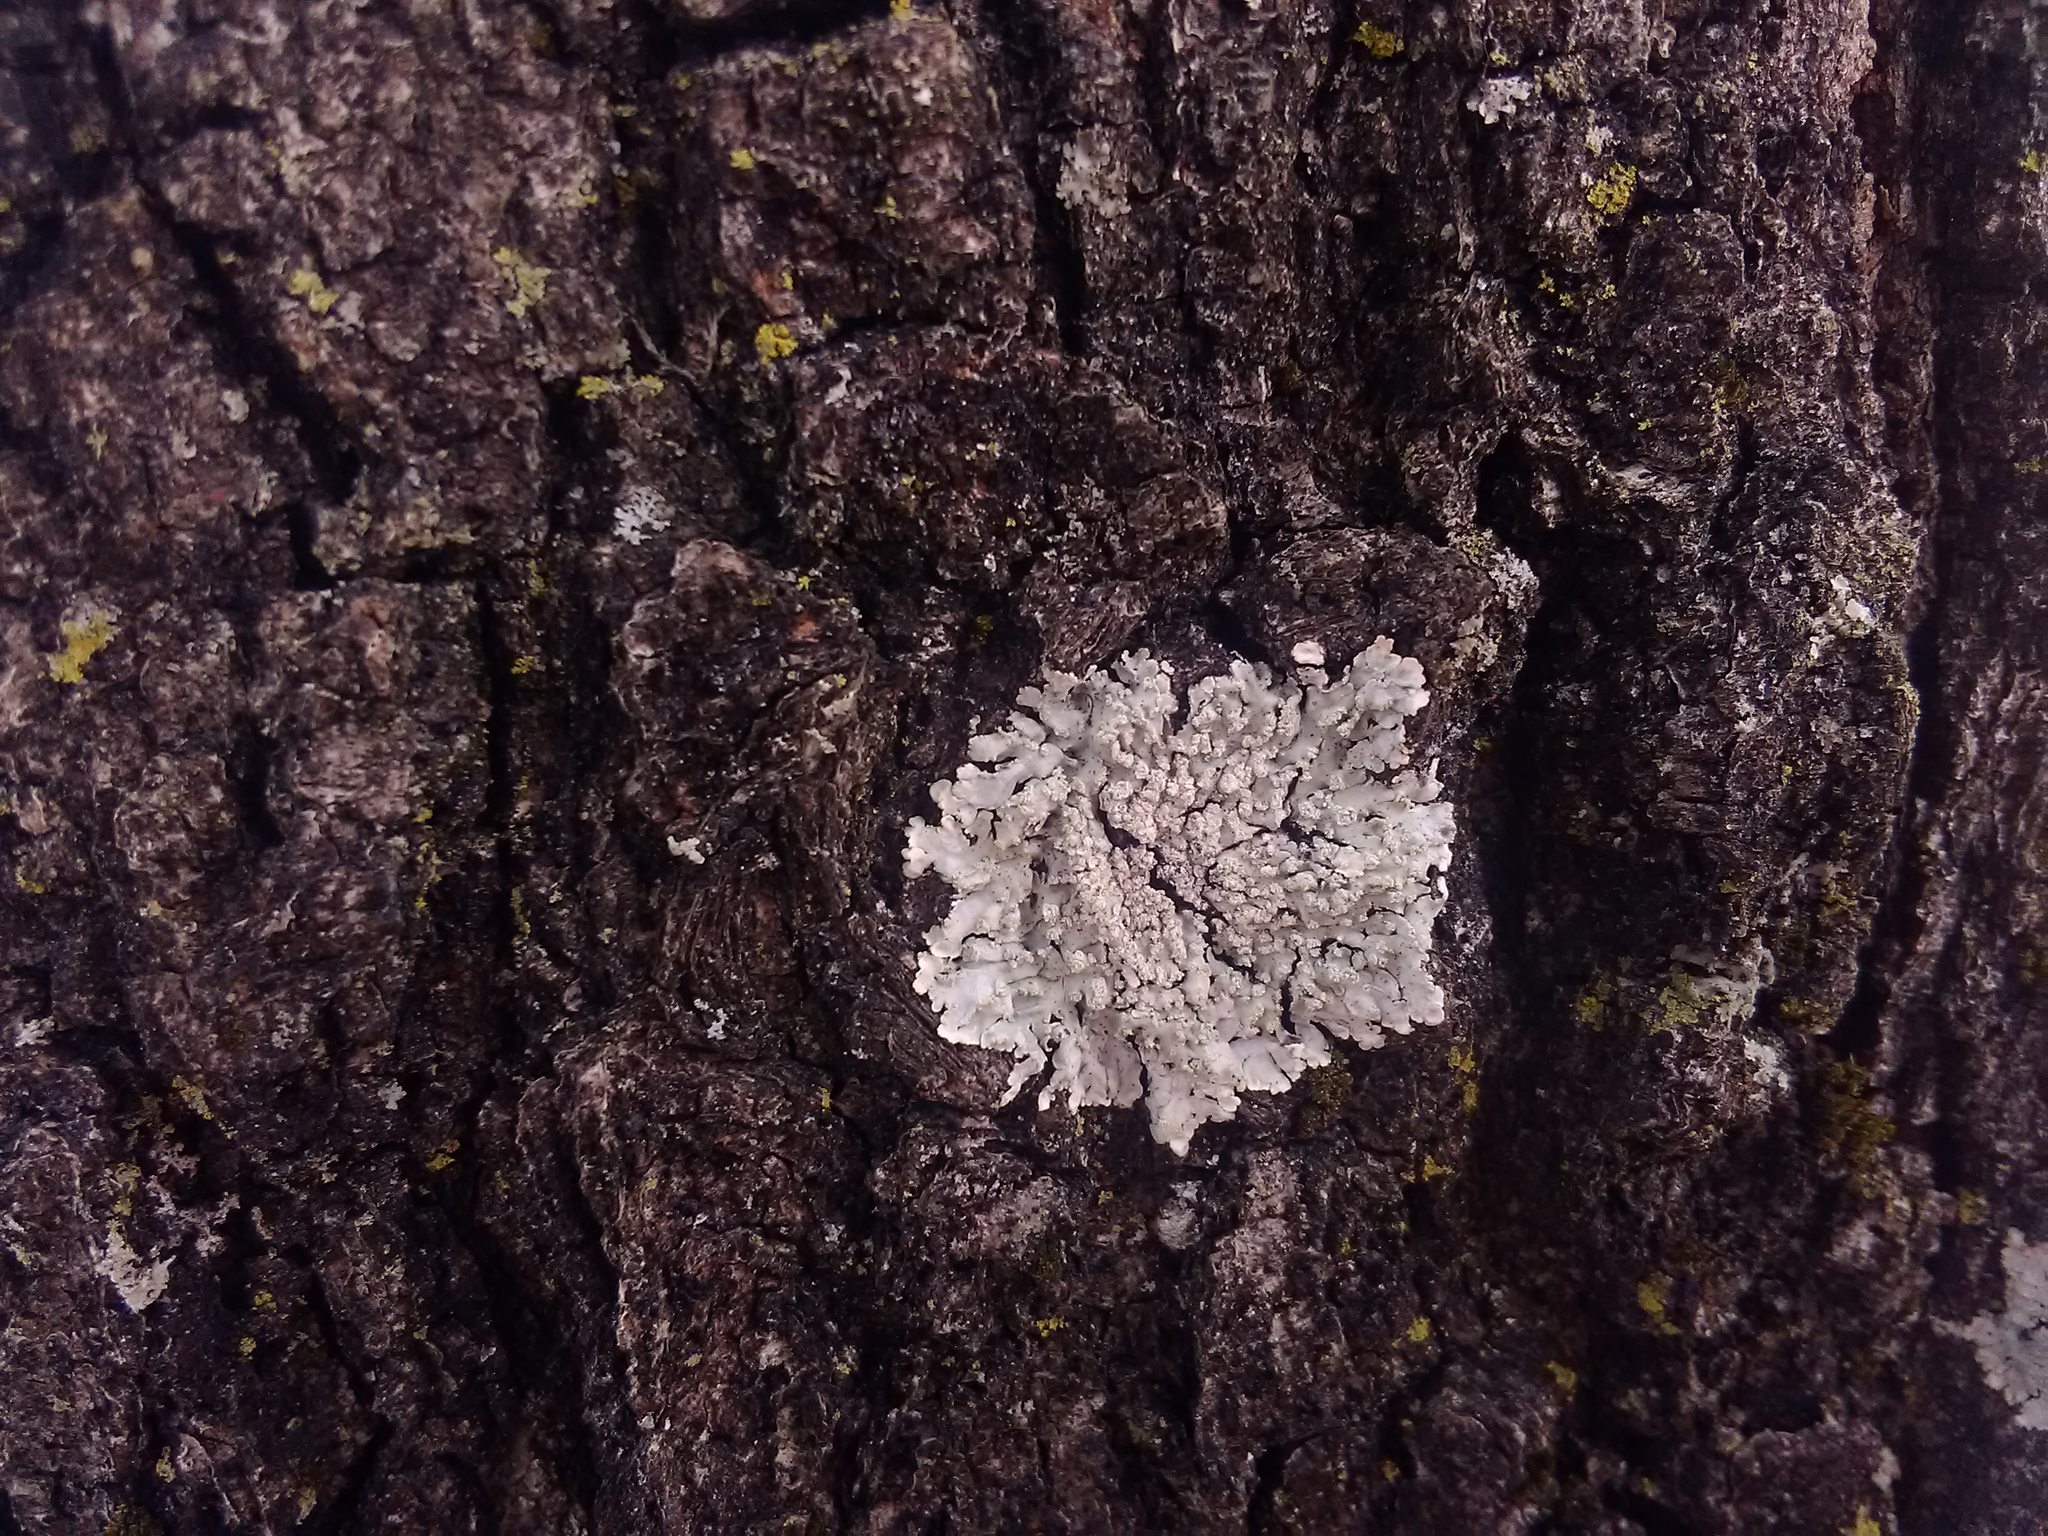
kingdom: Fungi
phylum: Ascomycota
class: Lecanoromycetes
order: Caliciales
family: Caliciaceae
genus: Pyxine
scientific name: Pyxine sorediata
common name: Mustard lichen
